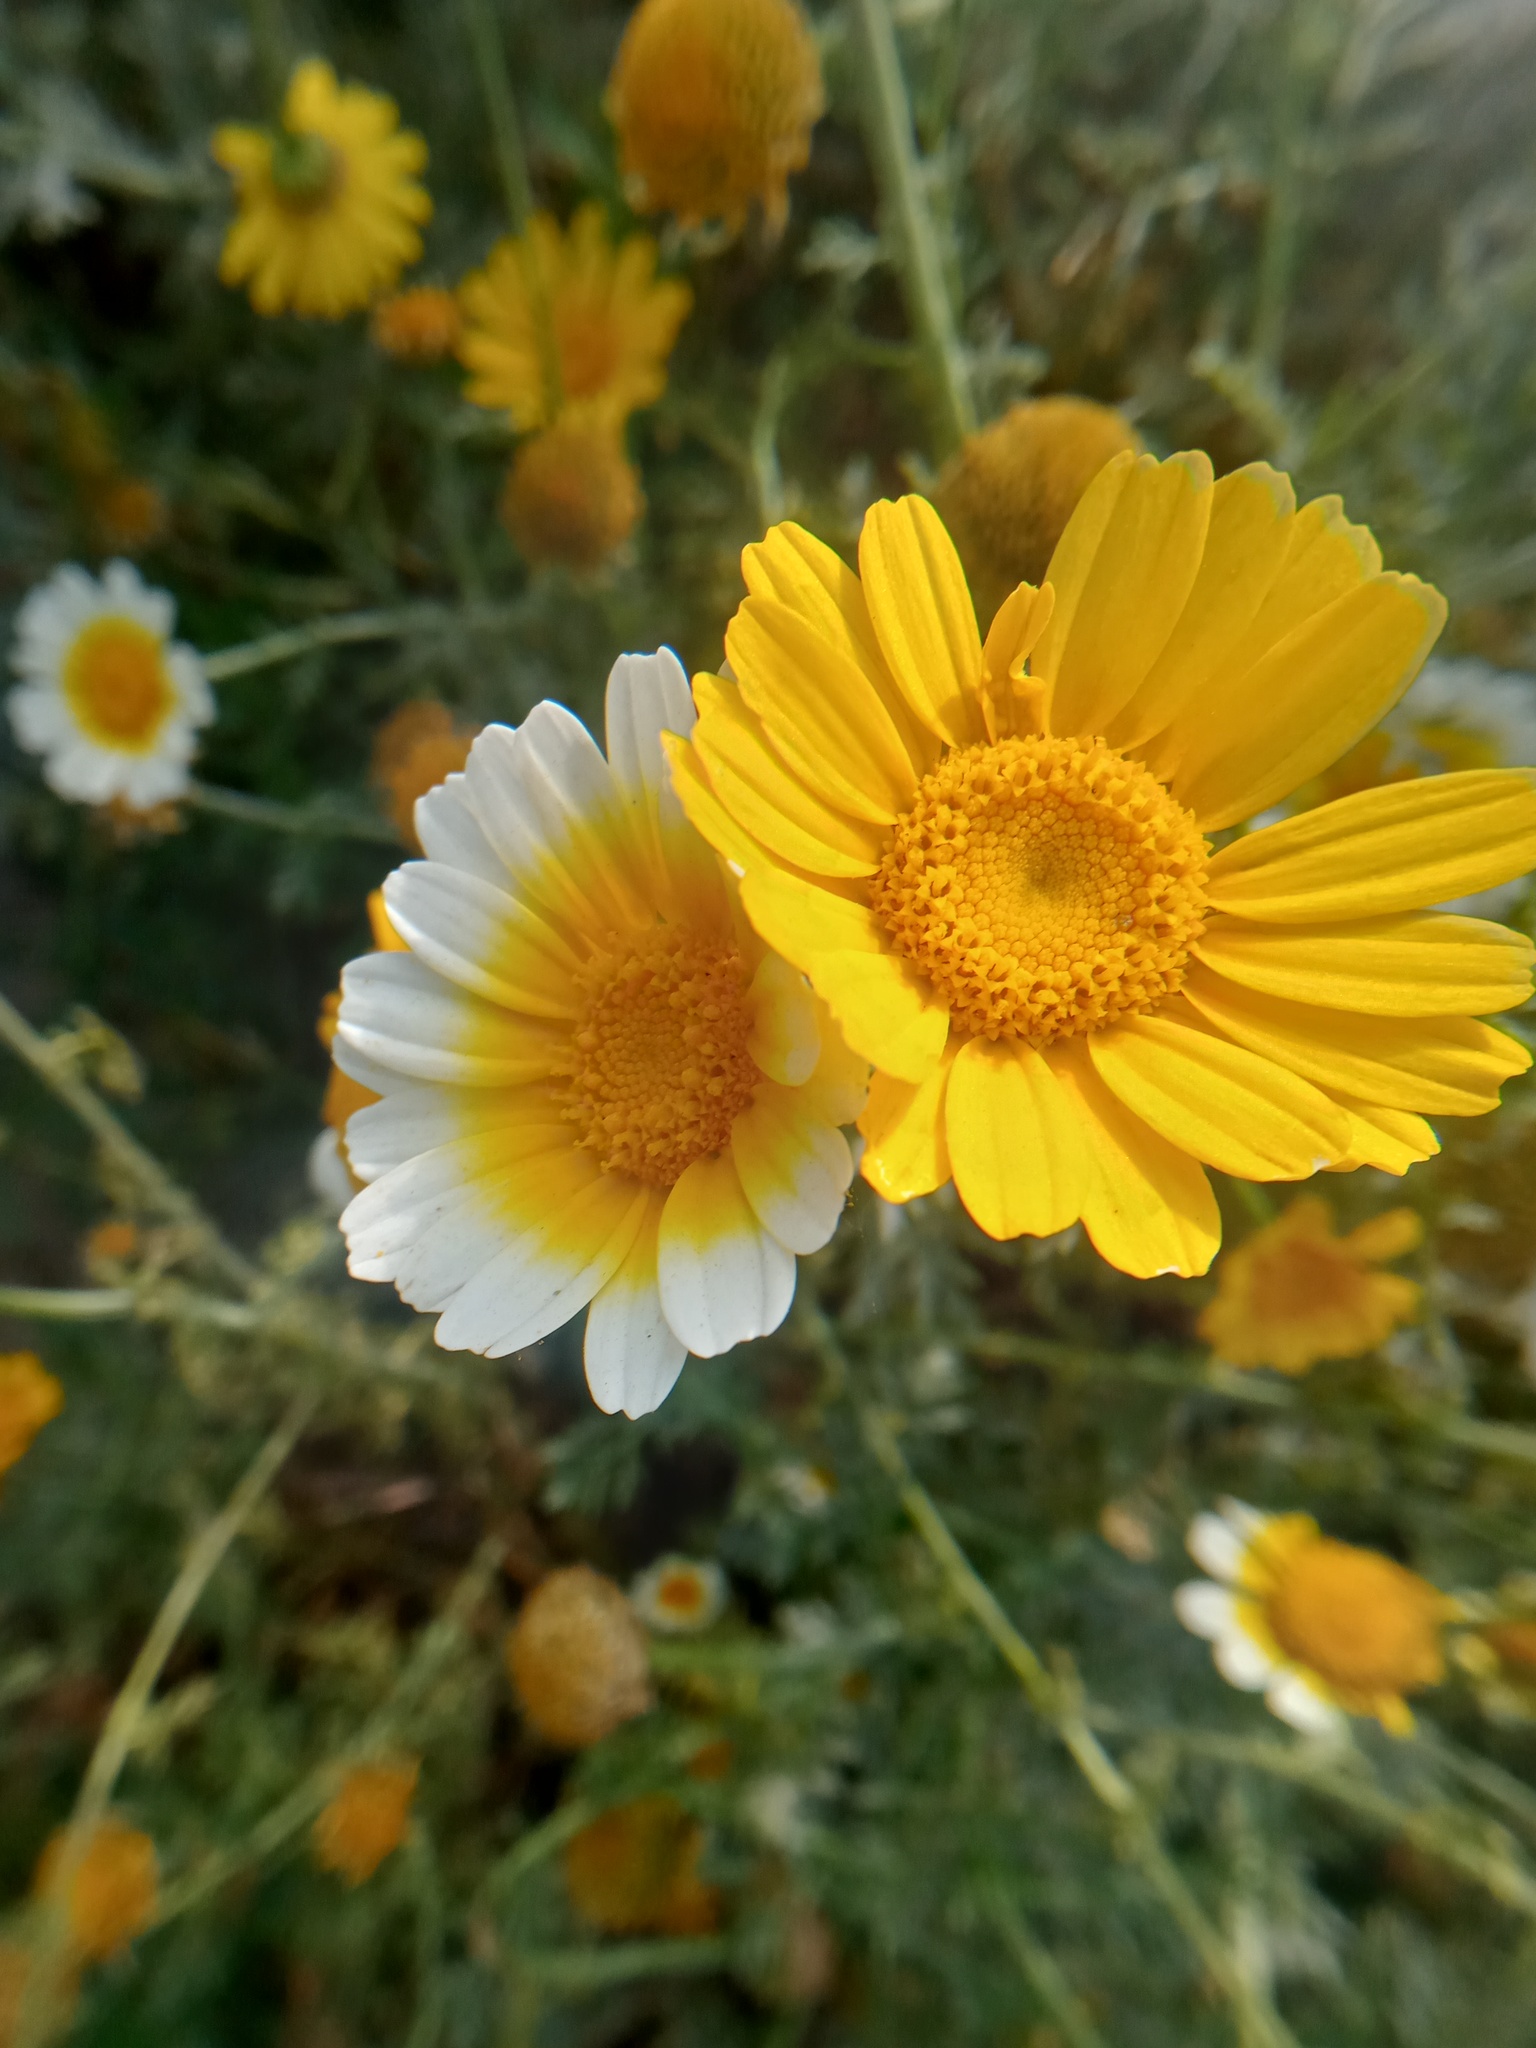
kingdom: Plantae
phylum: Tracheophyta
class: Magnoliopsida
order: Asterales
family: Asteraceae
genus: Glebionis
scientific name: Glebionis coronaria
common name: Crowndaisy
